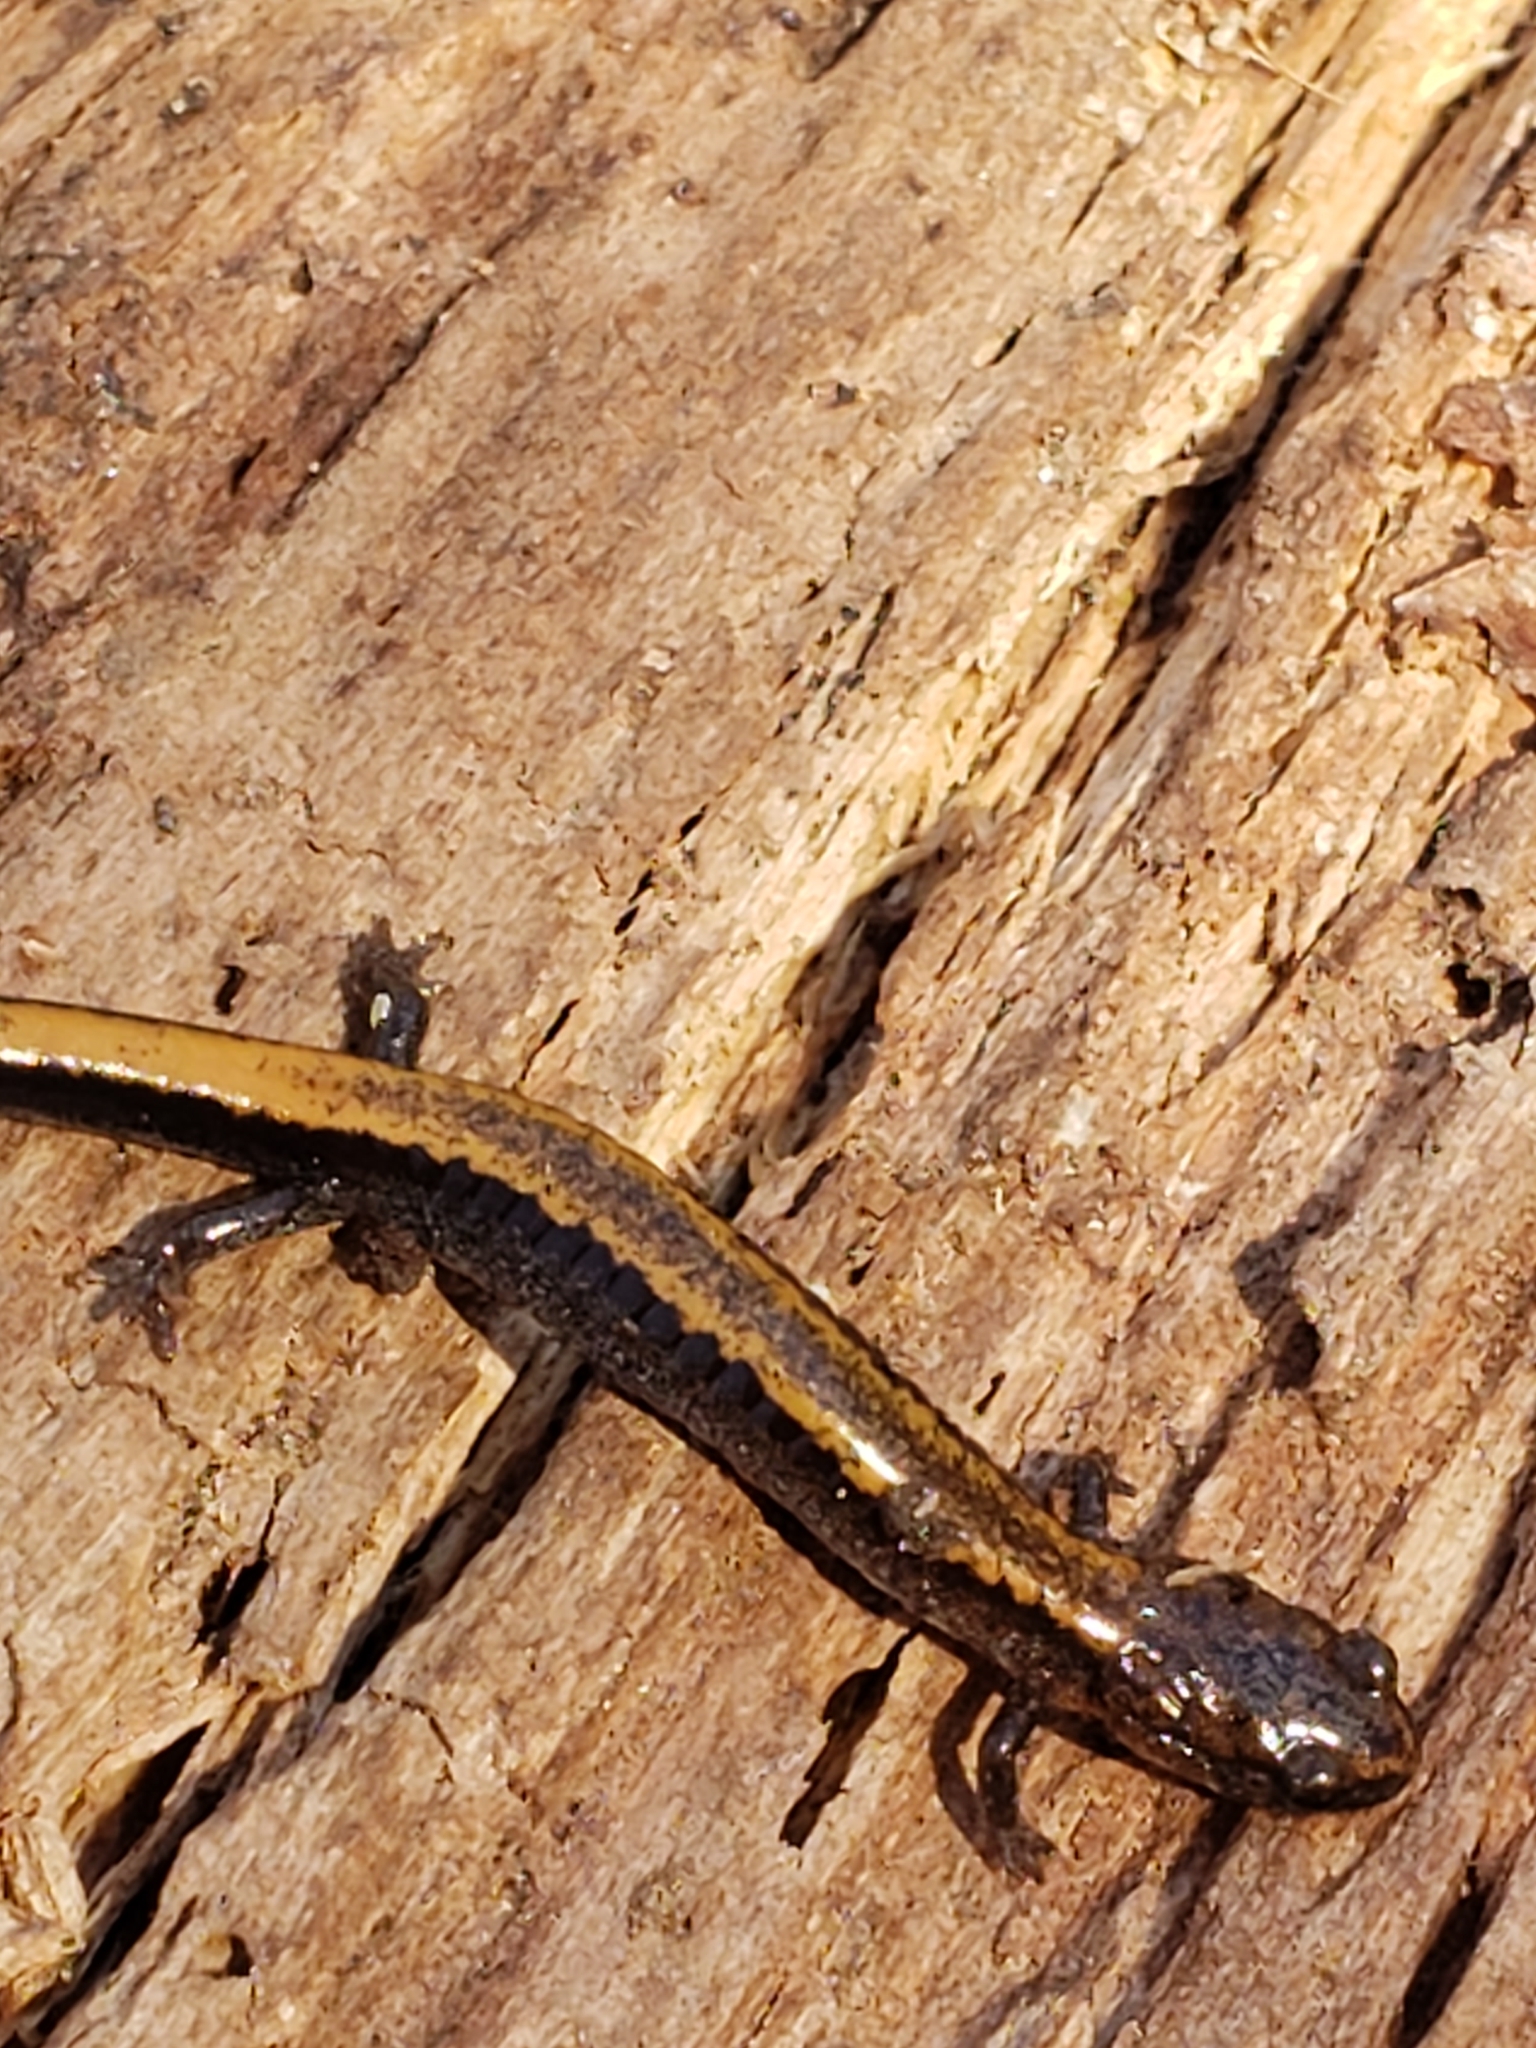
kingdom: Animalia
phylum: Chordata
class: Amphibia
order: Caudata
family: Plethodontidae
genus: Plethodon
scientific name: Plethodon cinereus
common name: Redback salamander
